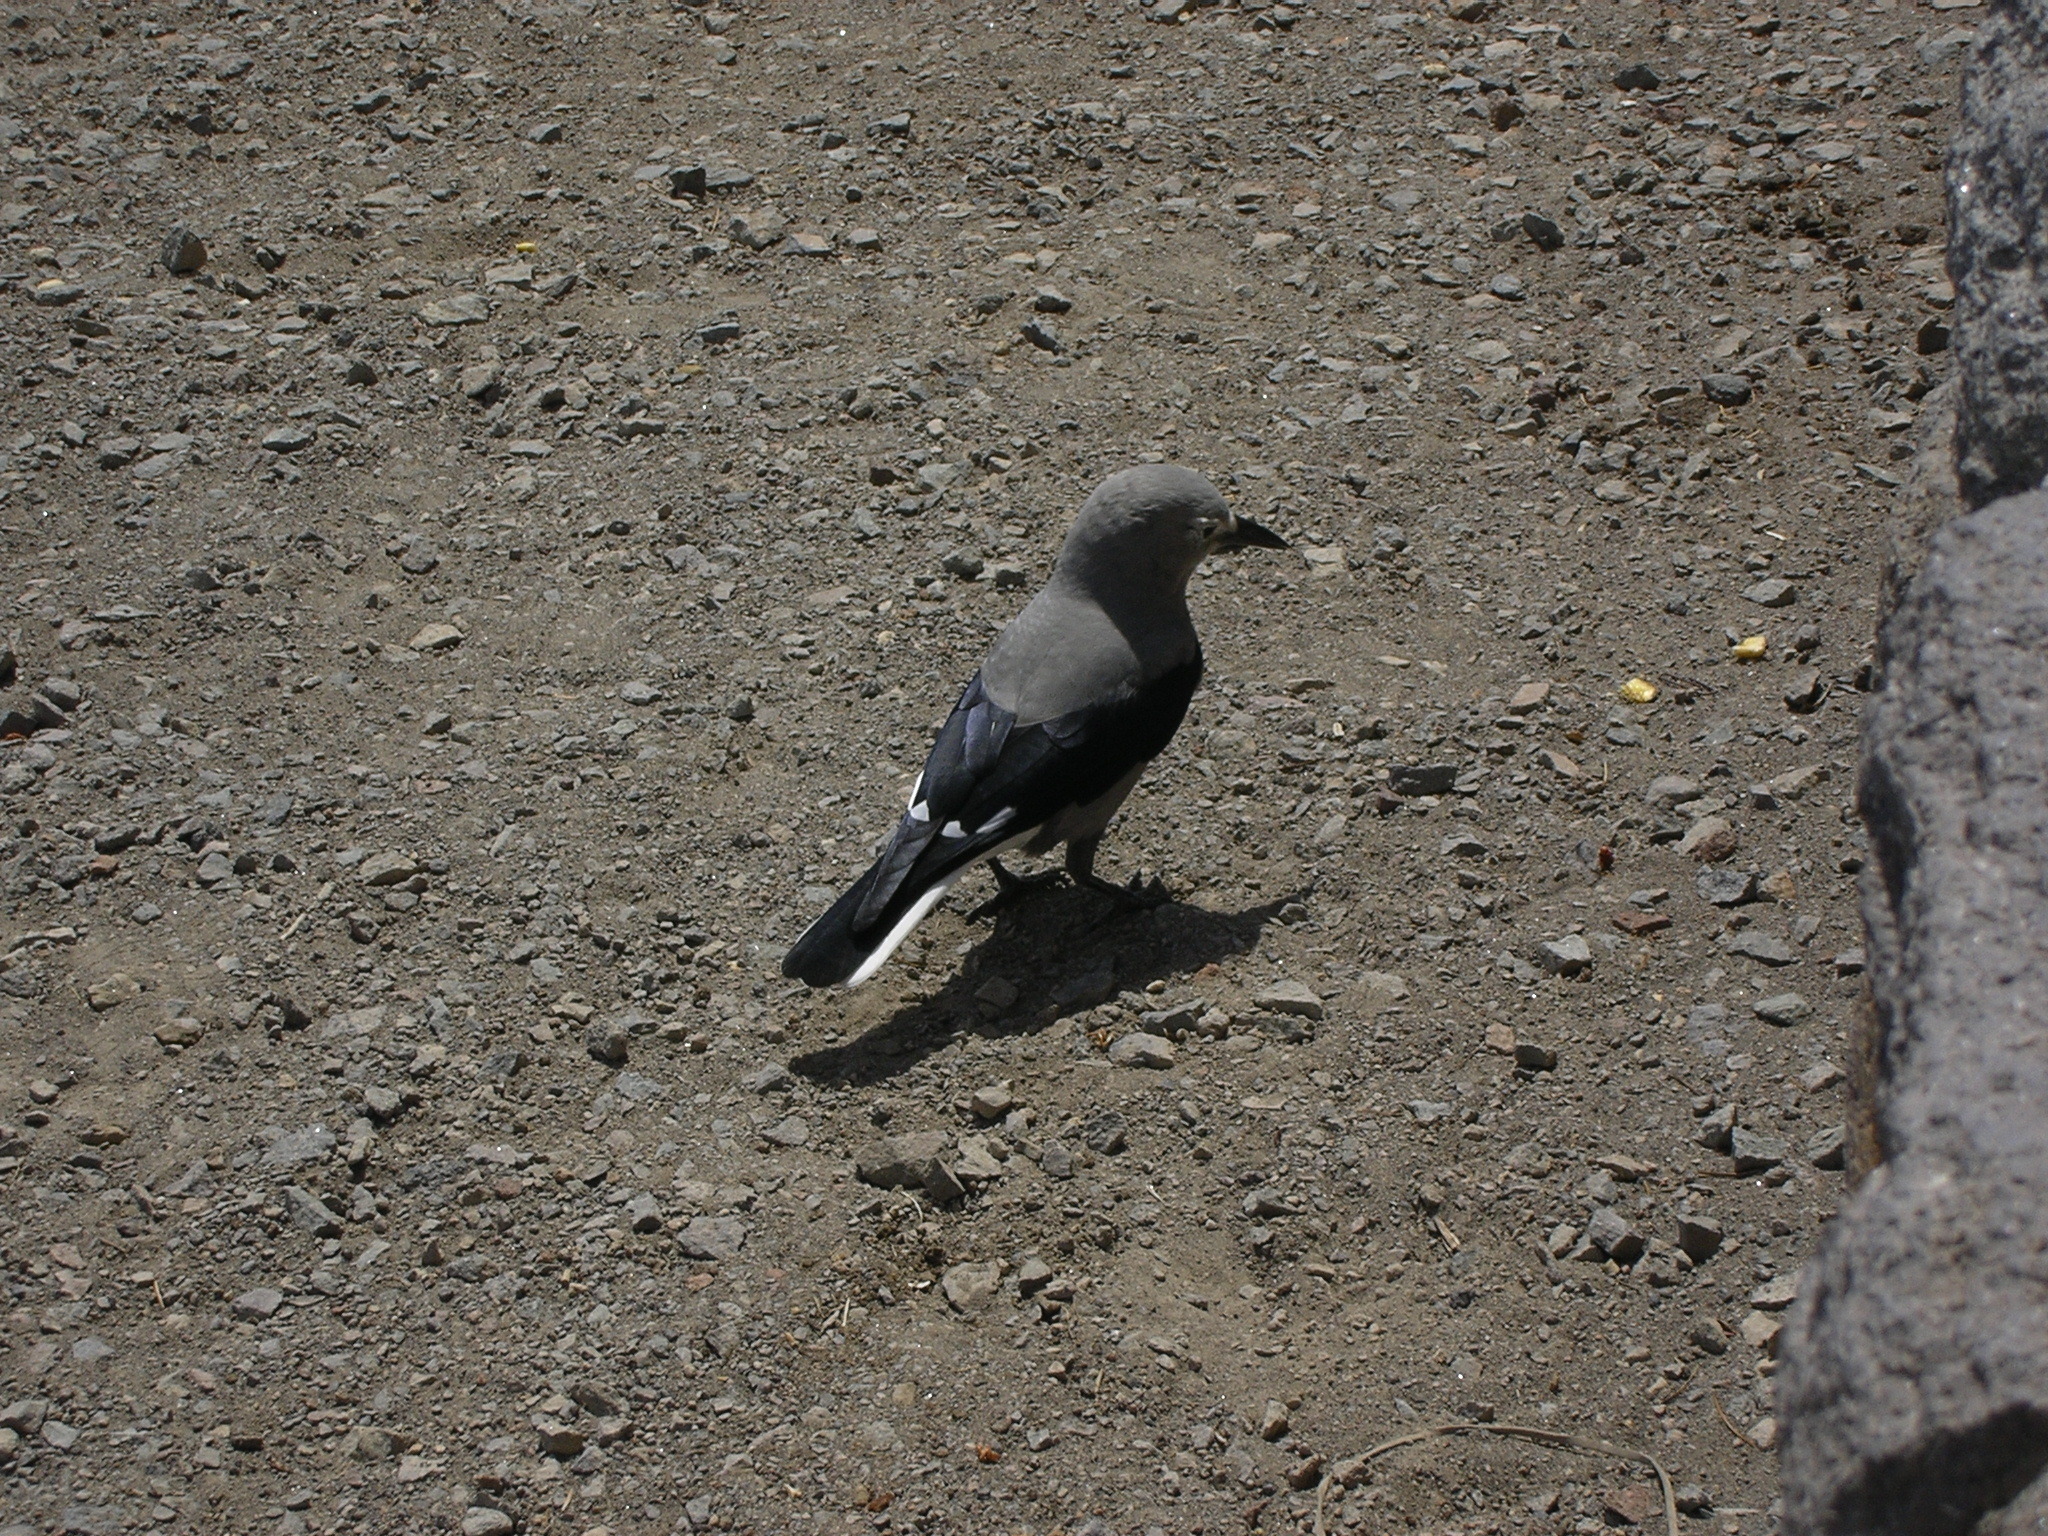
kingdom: Animalia
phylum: Chordata
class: Aves
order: Passeriformes
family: Corvidae
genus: Nucifraga
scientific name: Nucifraga columbiana
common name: Clark's nutcracker
